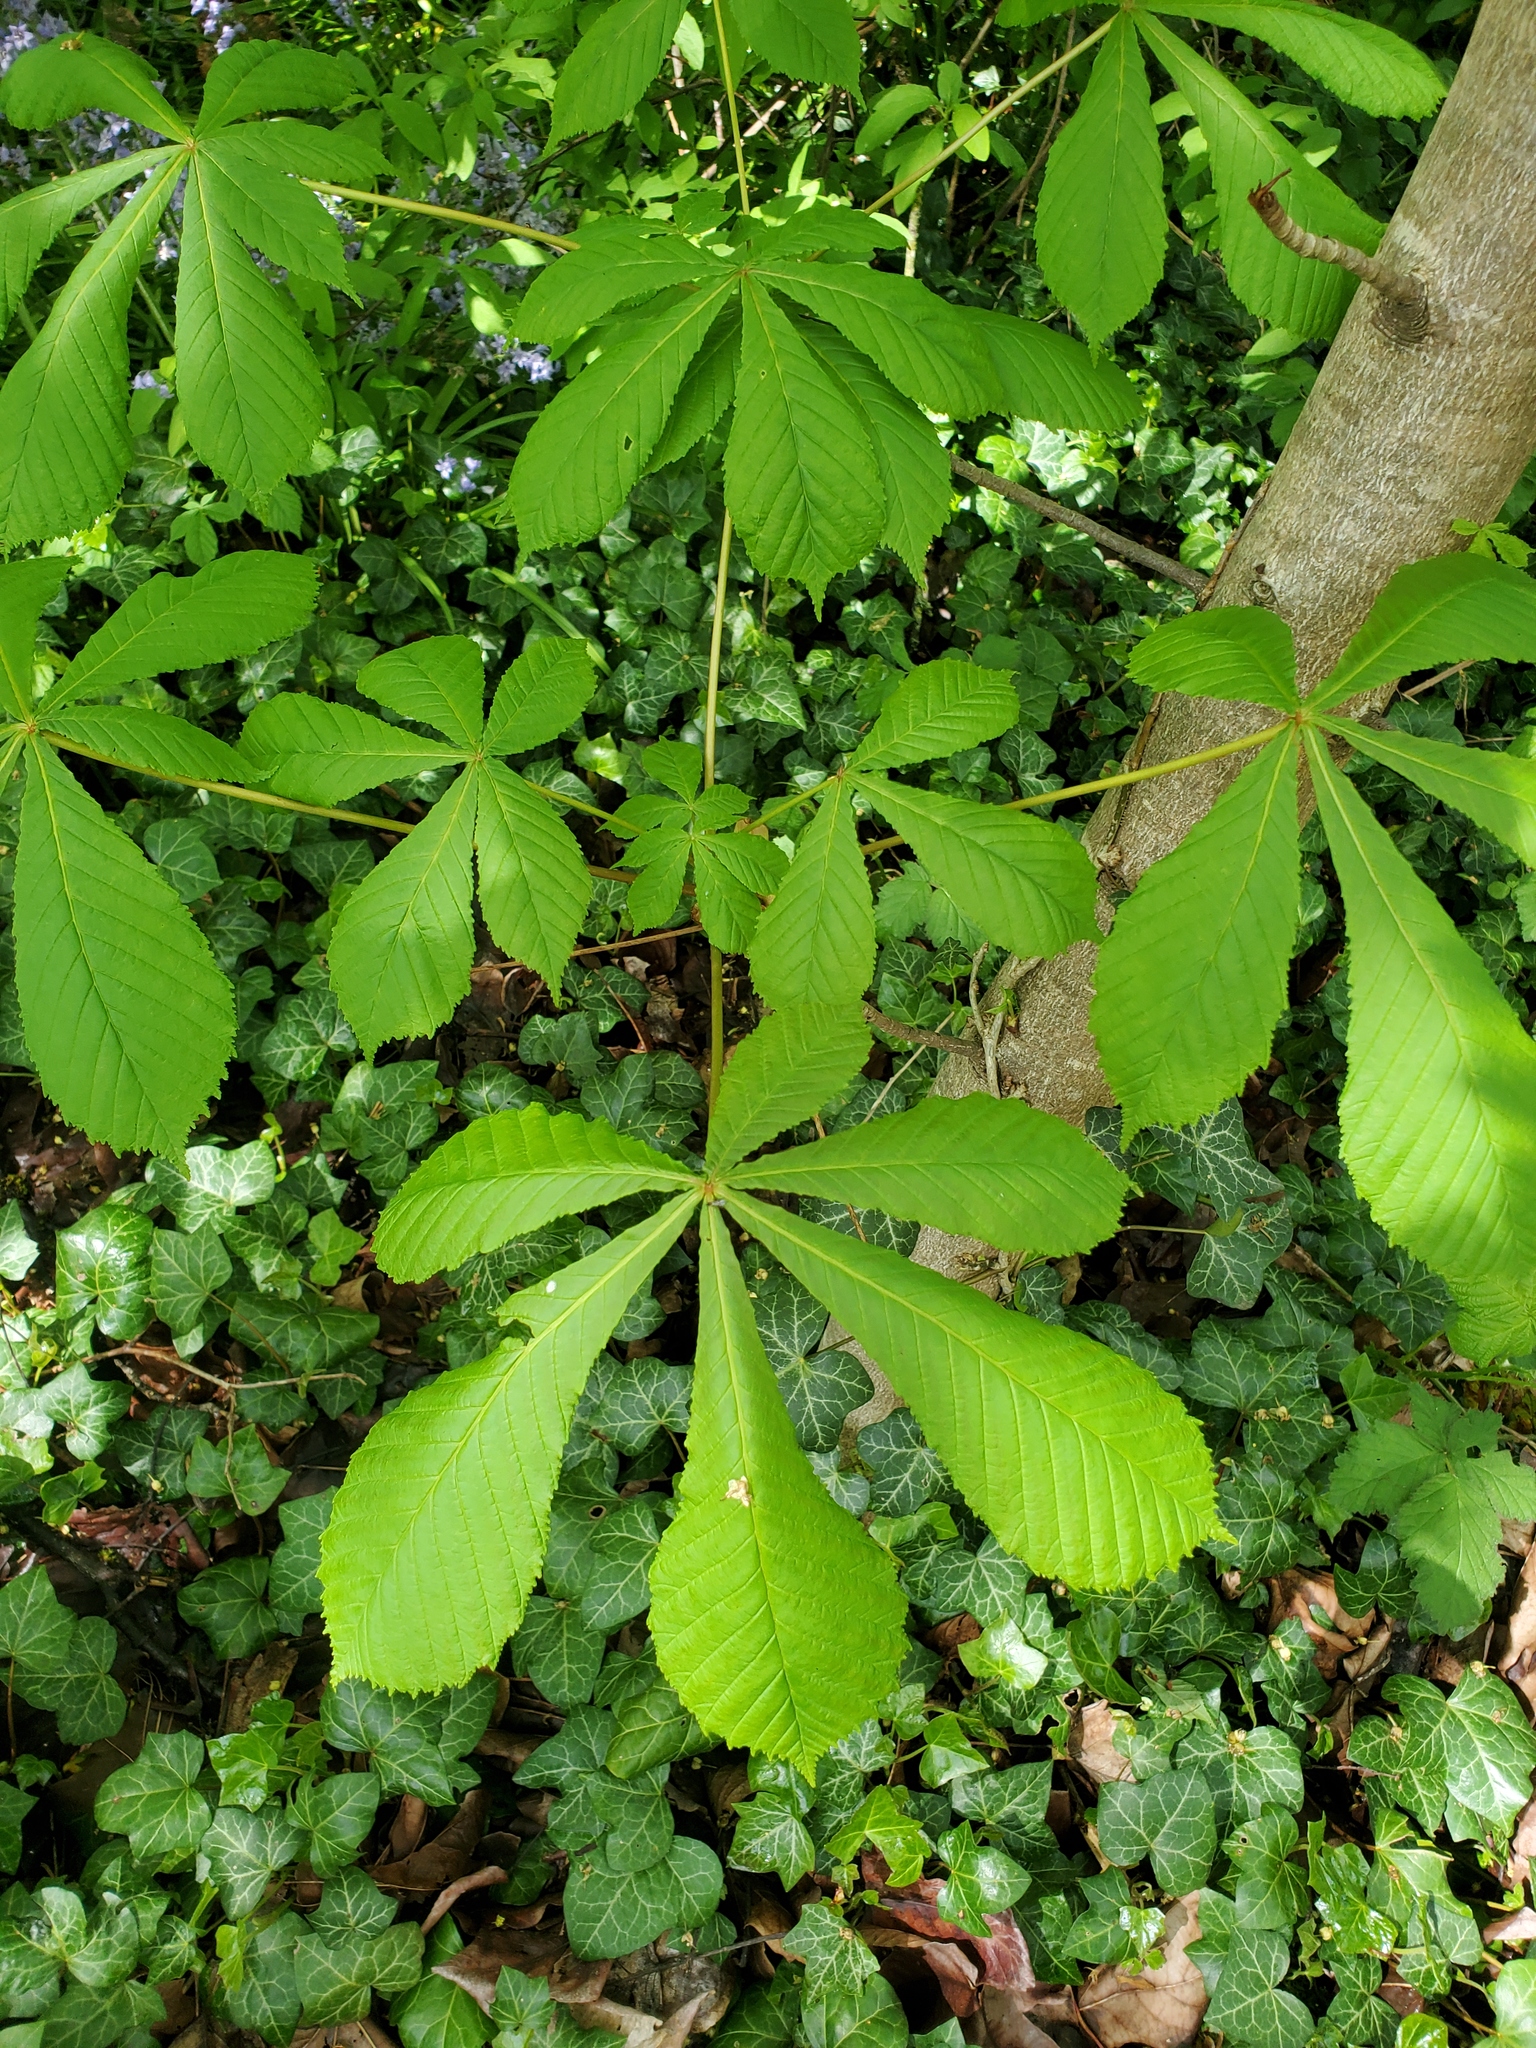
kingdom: Plantae
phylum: Tracheophyta
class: Magnoliopsida
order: Sapindales
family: Sapindaceae
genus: Aesculus
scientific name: Aesculus hippocastanum
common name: Horse-chestnut
